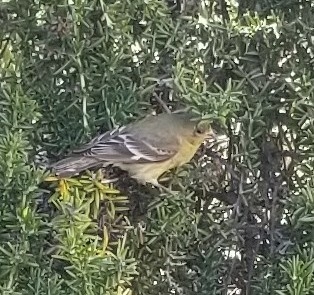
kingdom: Animalia
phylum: Chordata
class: Aves
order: Passeriformes
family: Fringillidae
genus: Spinus
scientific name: Spinus psaltria
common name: Lesser goldfinch
